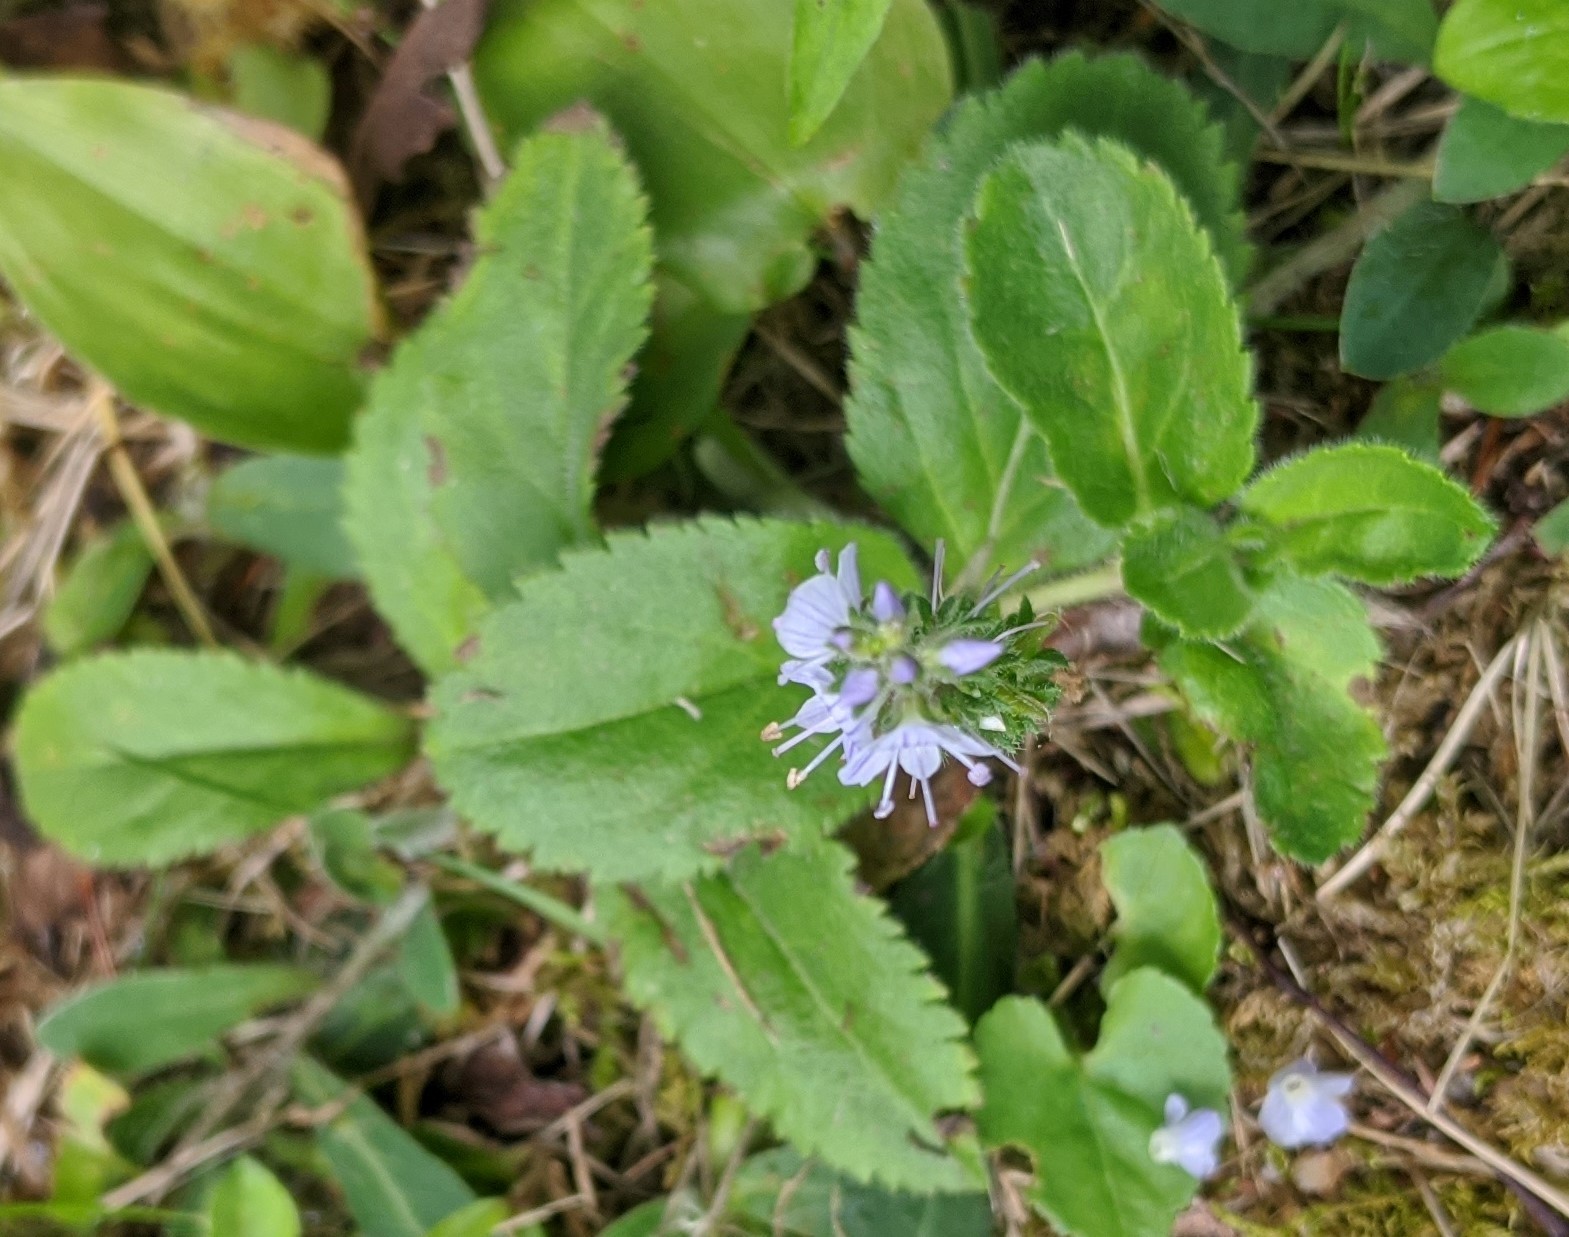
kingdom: Plantae
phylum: Tracheophyta
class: Magnoliopsida
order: Lamiales
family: Plantaginaceae
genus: Veronica
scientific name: Veronica officinalis
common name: Common speedwell
